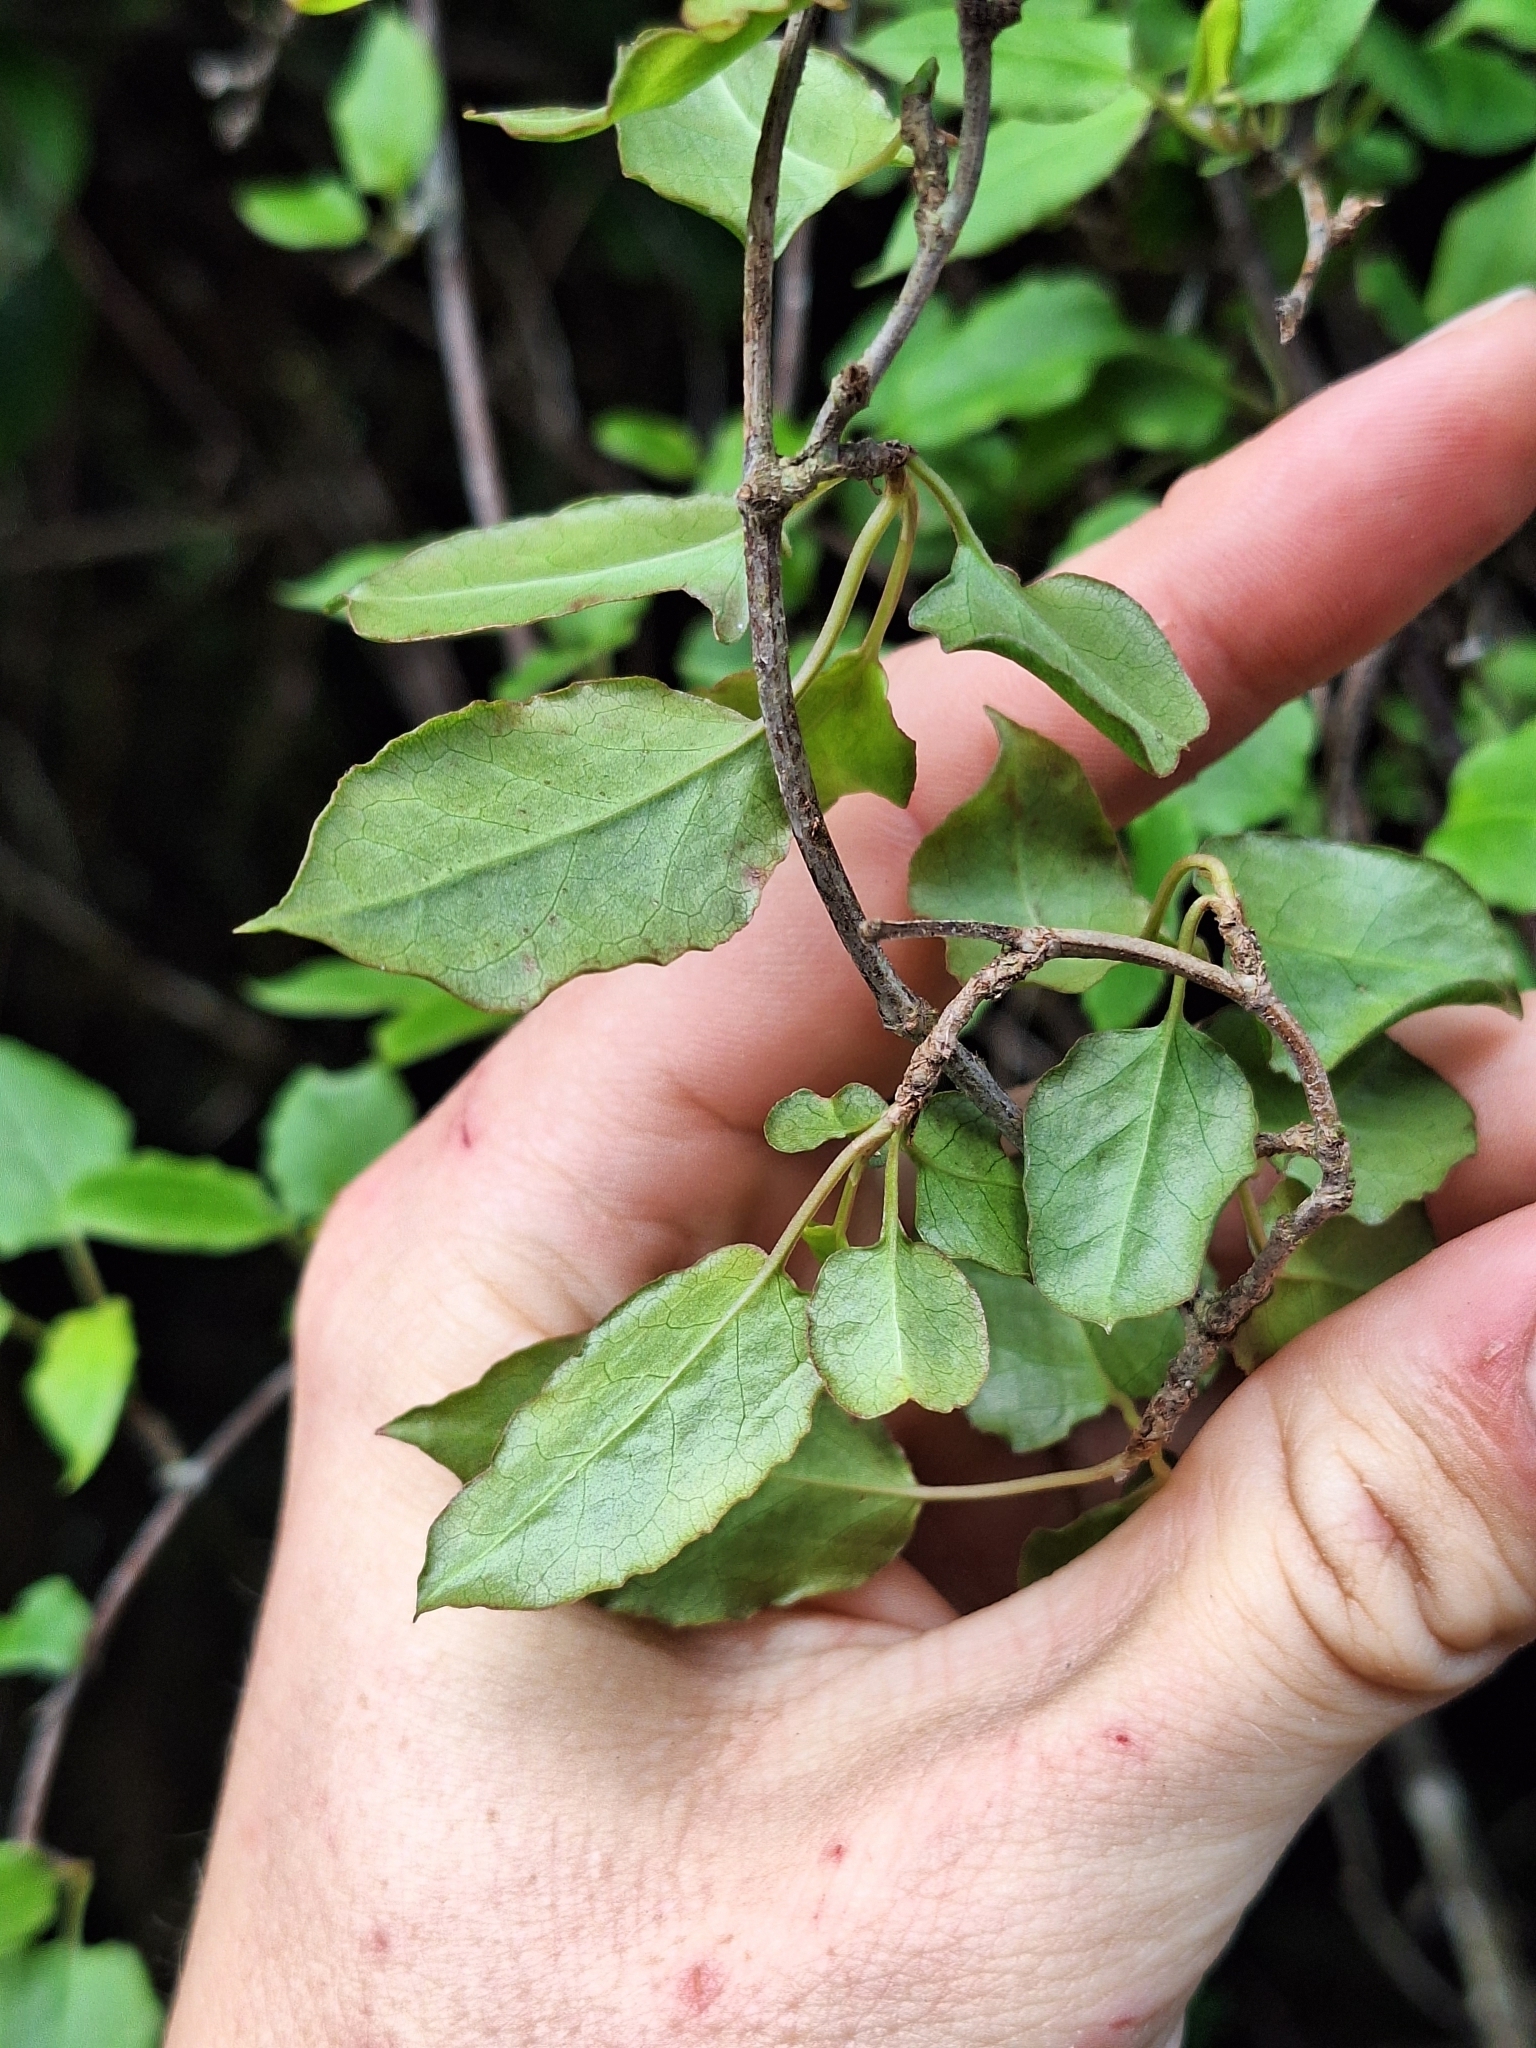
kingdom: Plantae
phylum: Tracheophyta
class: Magnoliopsida
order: Caryophyllales
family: Polygonaceae
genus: Muehlenbeckia
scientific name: Muehlenbeckia australis
